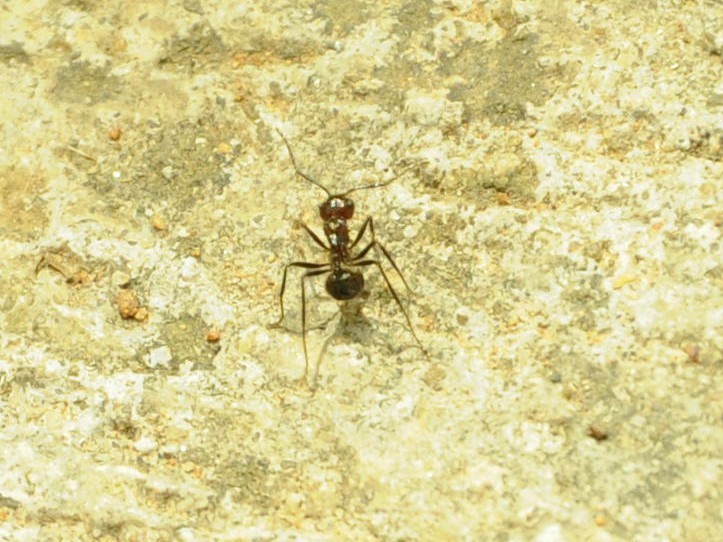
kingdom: Animalia
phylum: Arthropoda
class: Insecta
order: Hymenoptera
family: Formicidae
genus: Myrmicaria
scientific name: Myrmicaria brunnea
